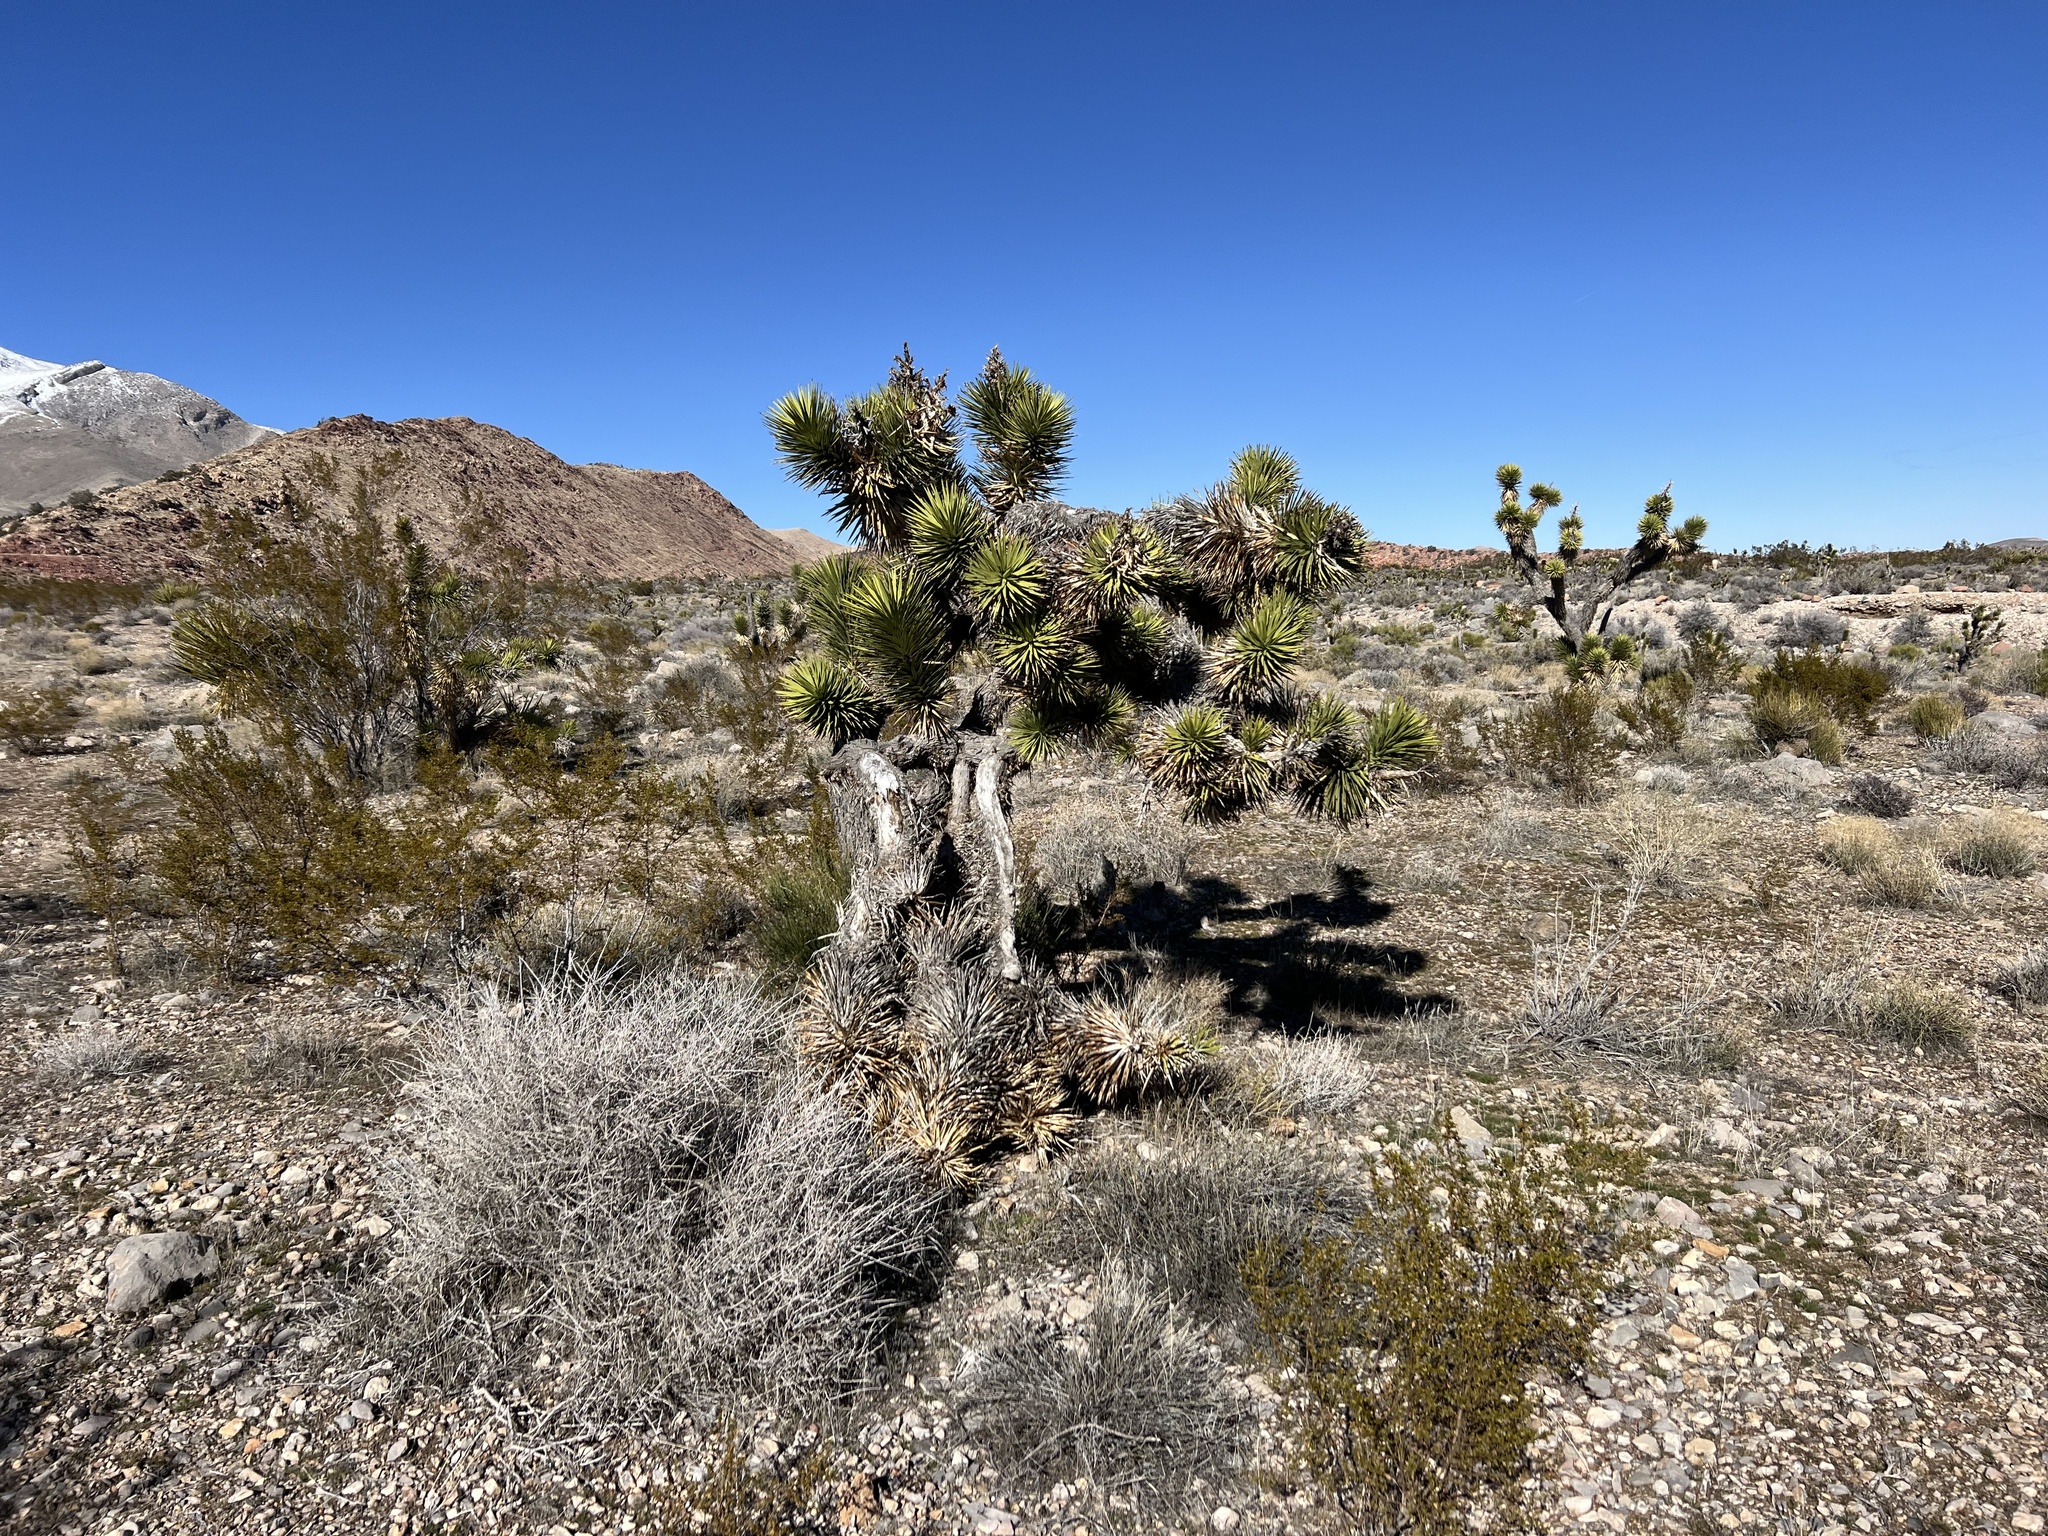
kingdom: Plantae
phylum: Tracheophyta
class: Liliopsida
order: Asparagales
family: Asparagaceae
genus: Yucca
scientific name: Yucca brevifolia
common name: Joshua tree
